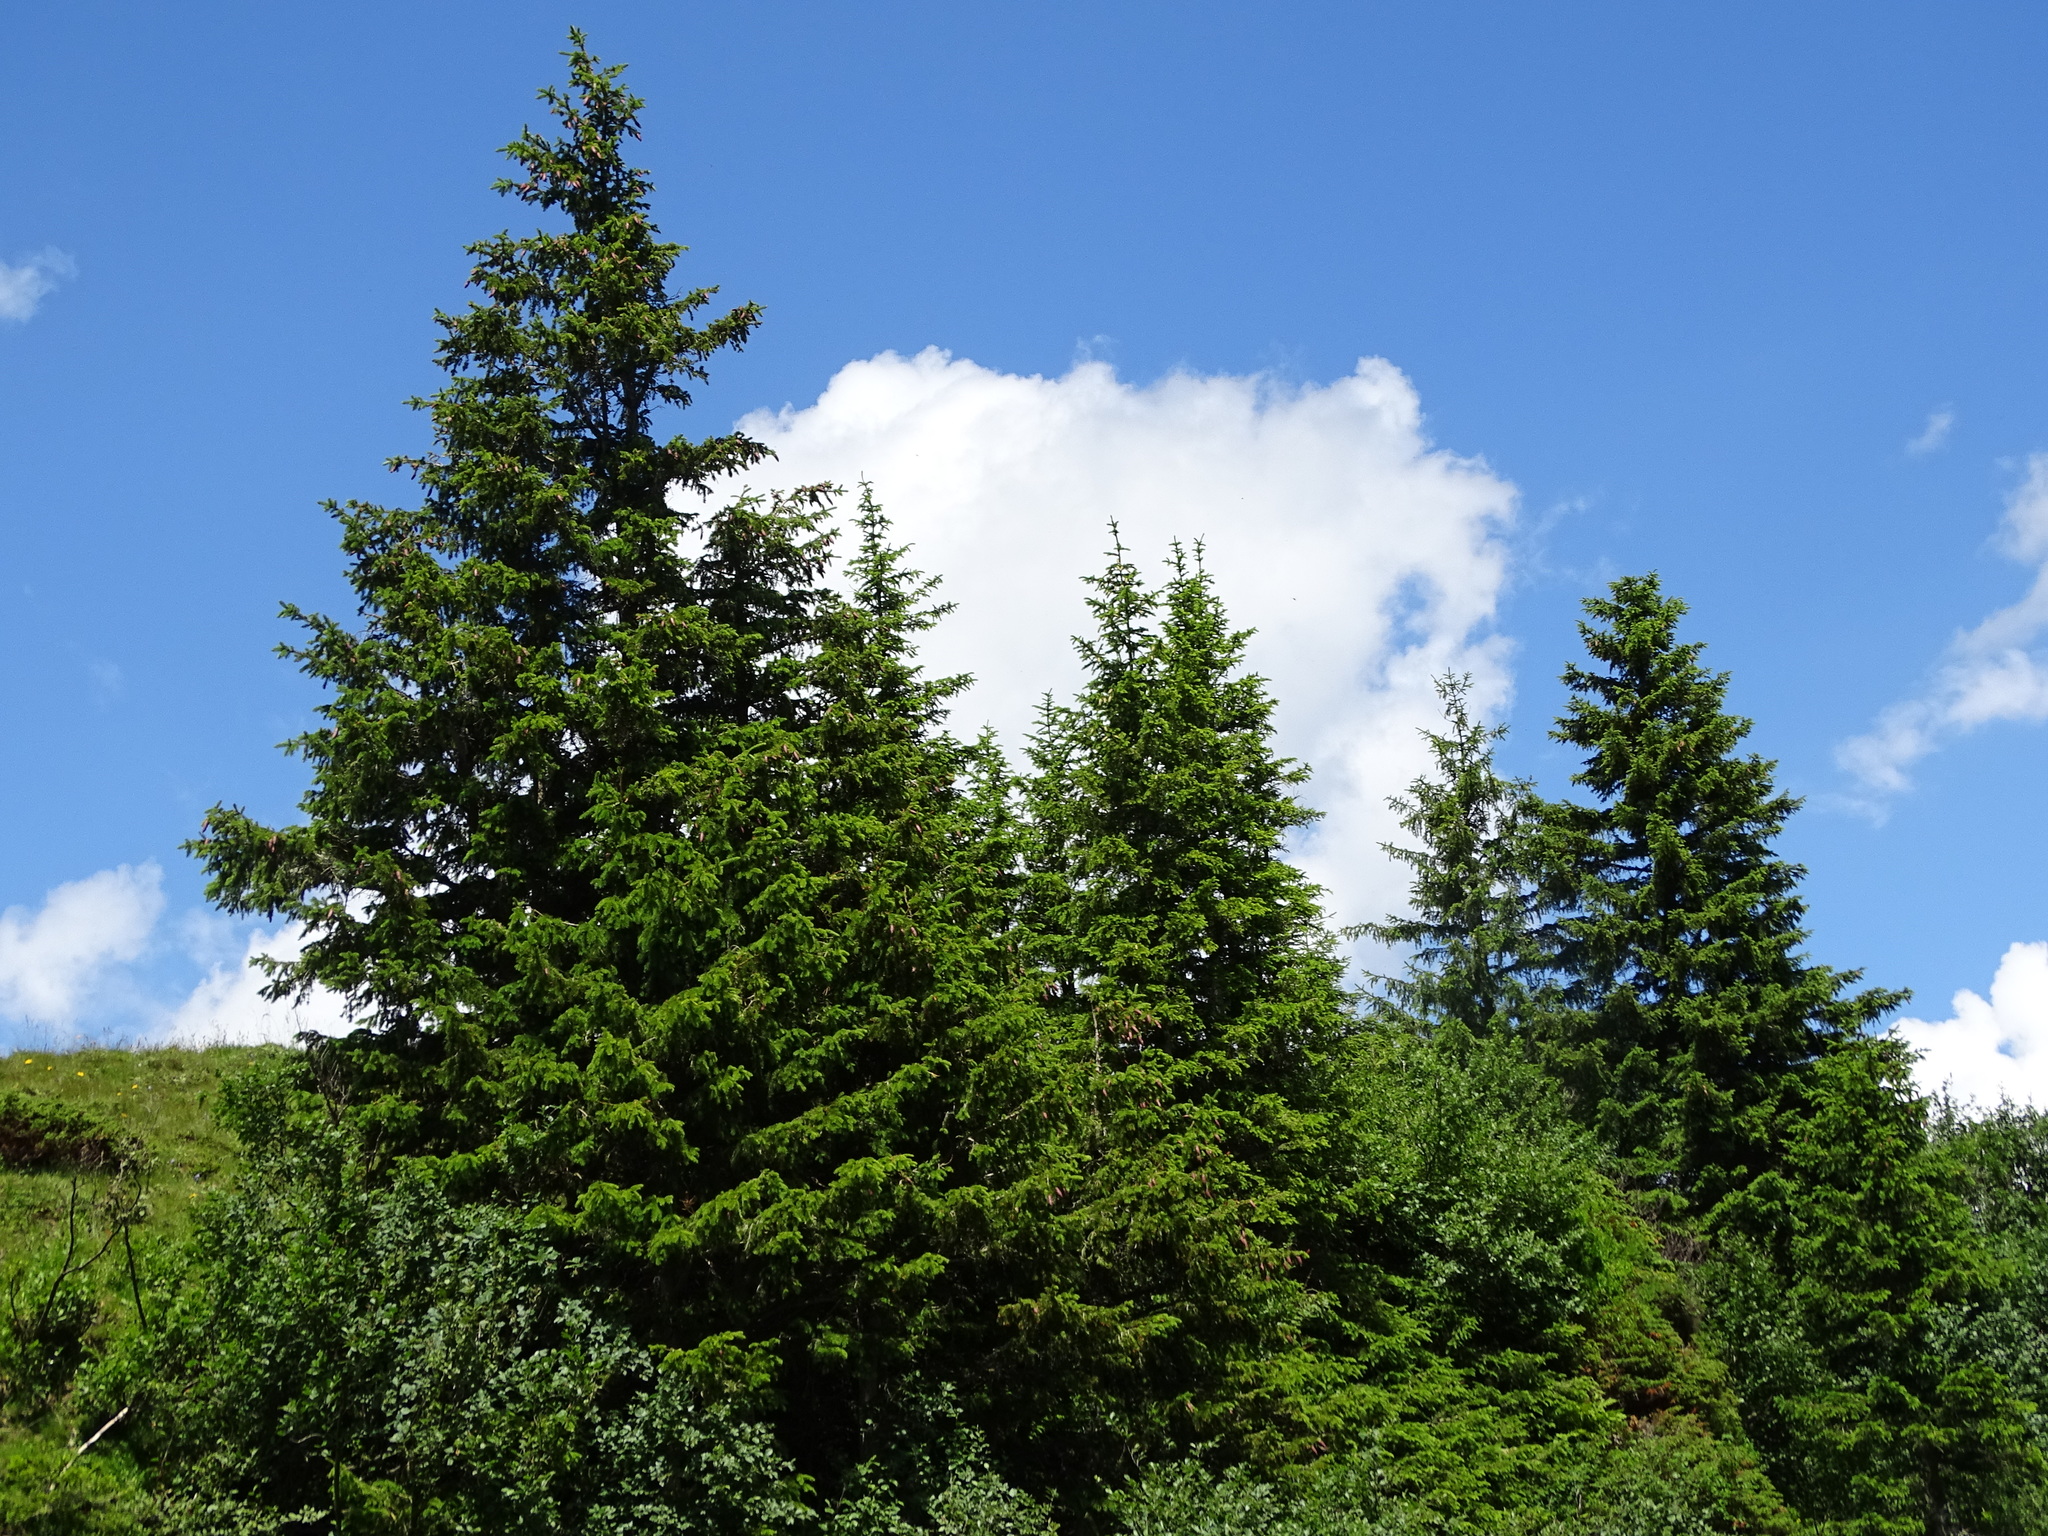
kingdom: Plantae
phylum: Tracheophyta
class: Pinopsida
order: Pinales
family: Pinaceae
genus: Picea
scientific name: Picea abies
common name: Norway spruce
